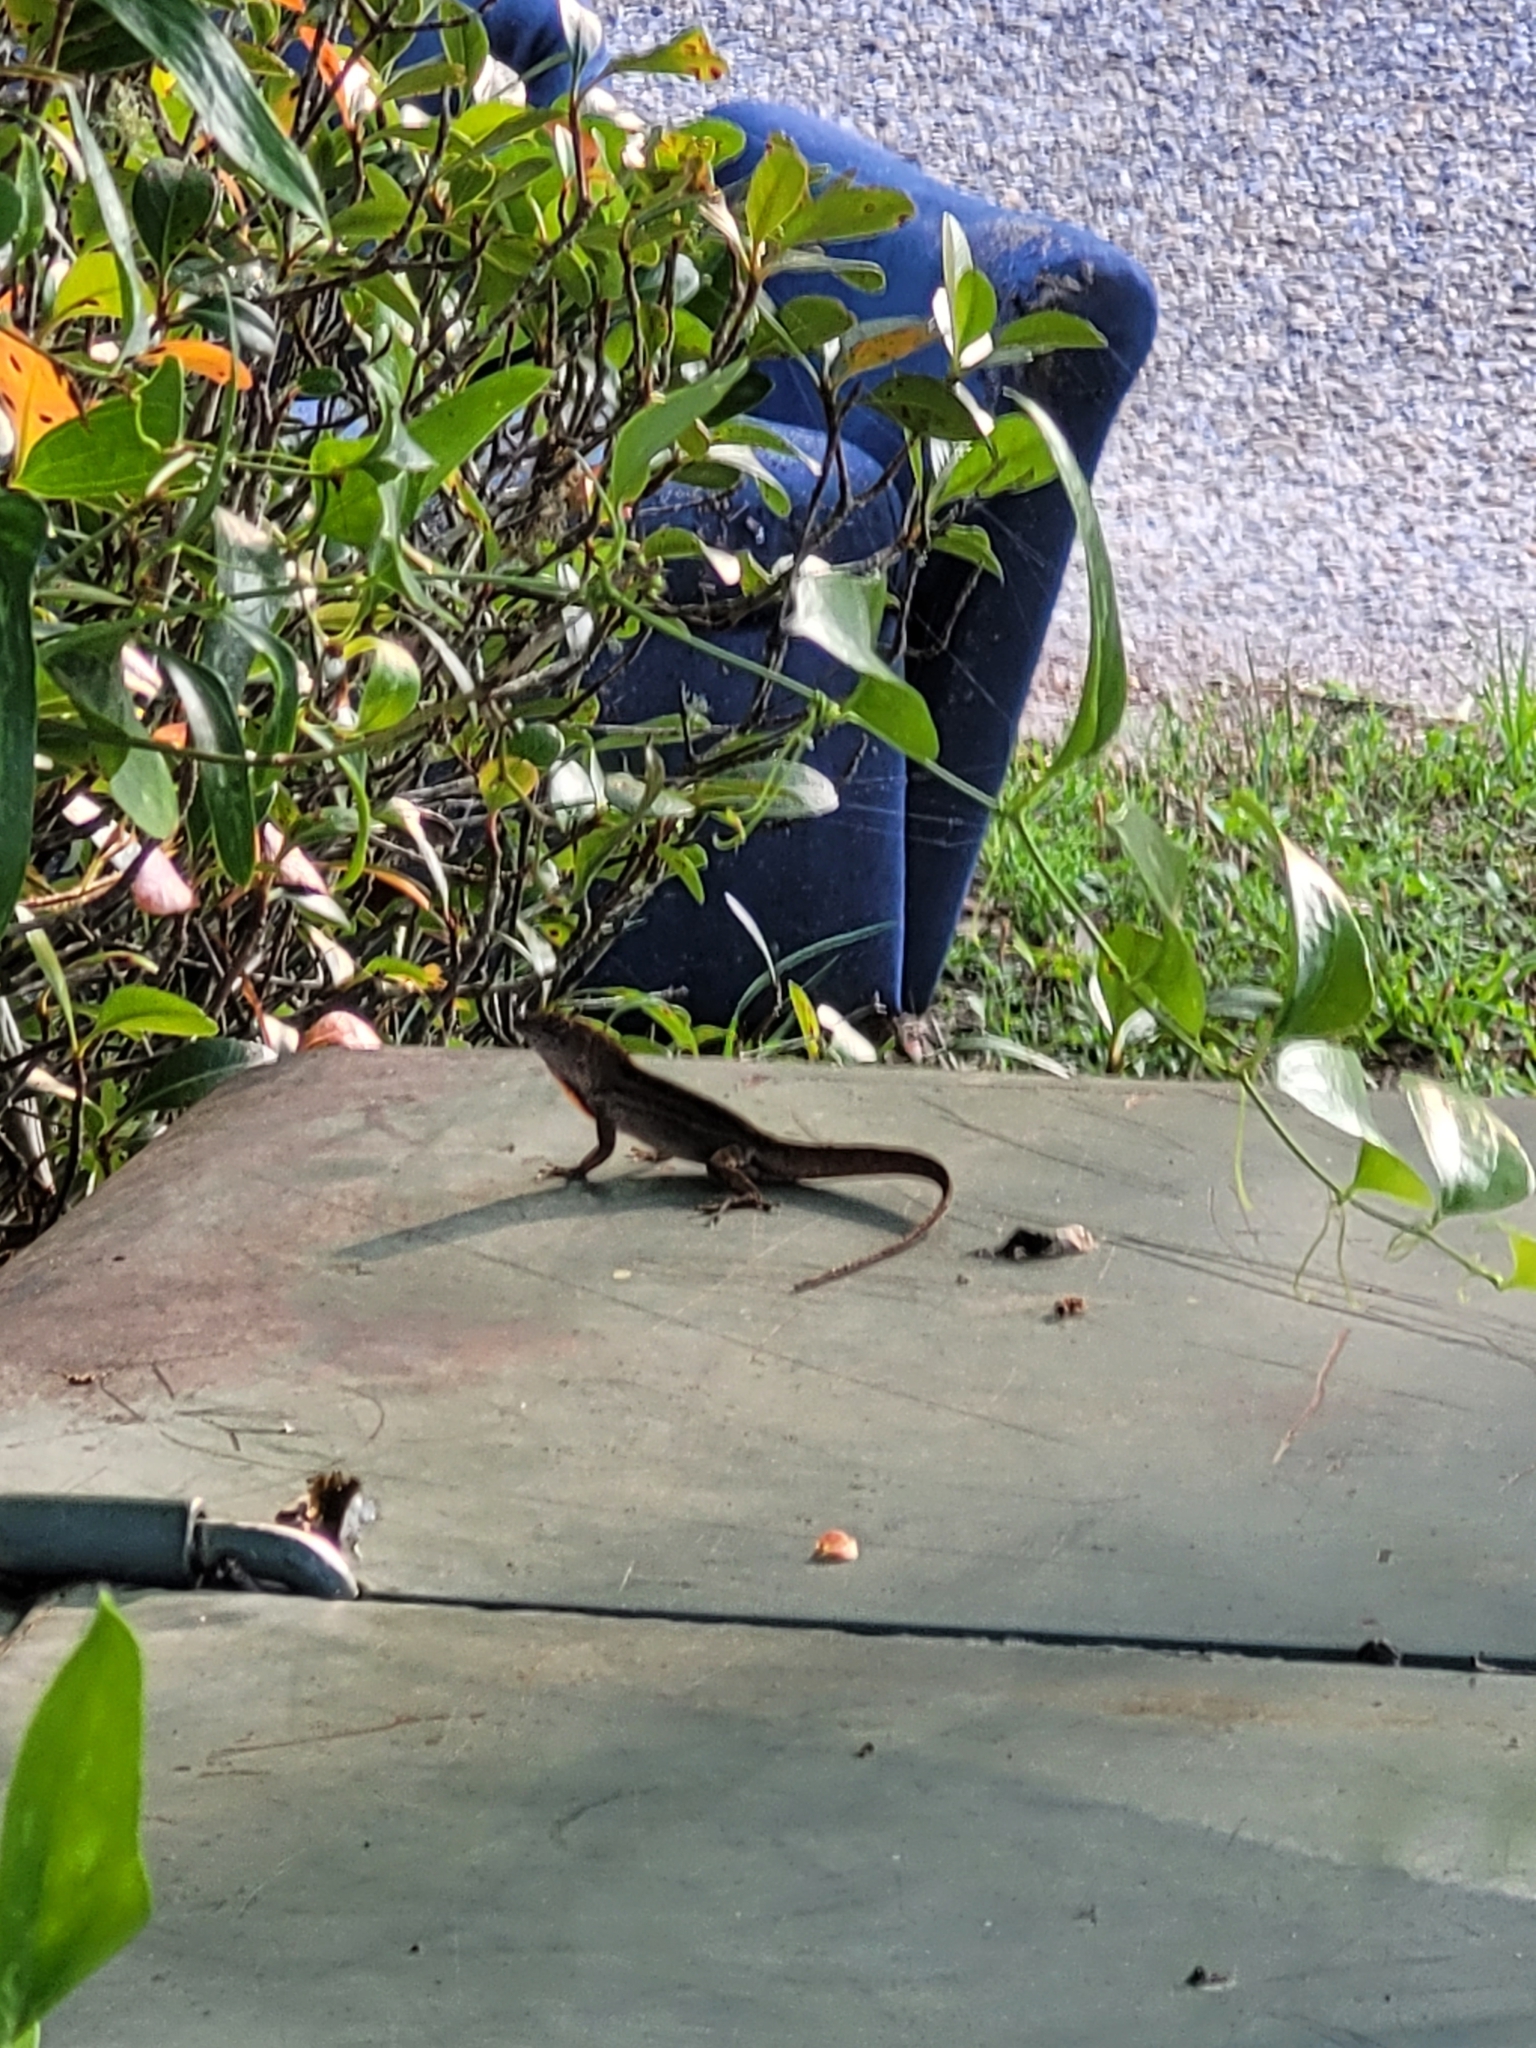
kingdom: Animalia
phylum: Chordata
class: Squamata
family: Dactyloidae
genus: Anolis
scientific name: Anolis sagrei
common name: Brown anole
